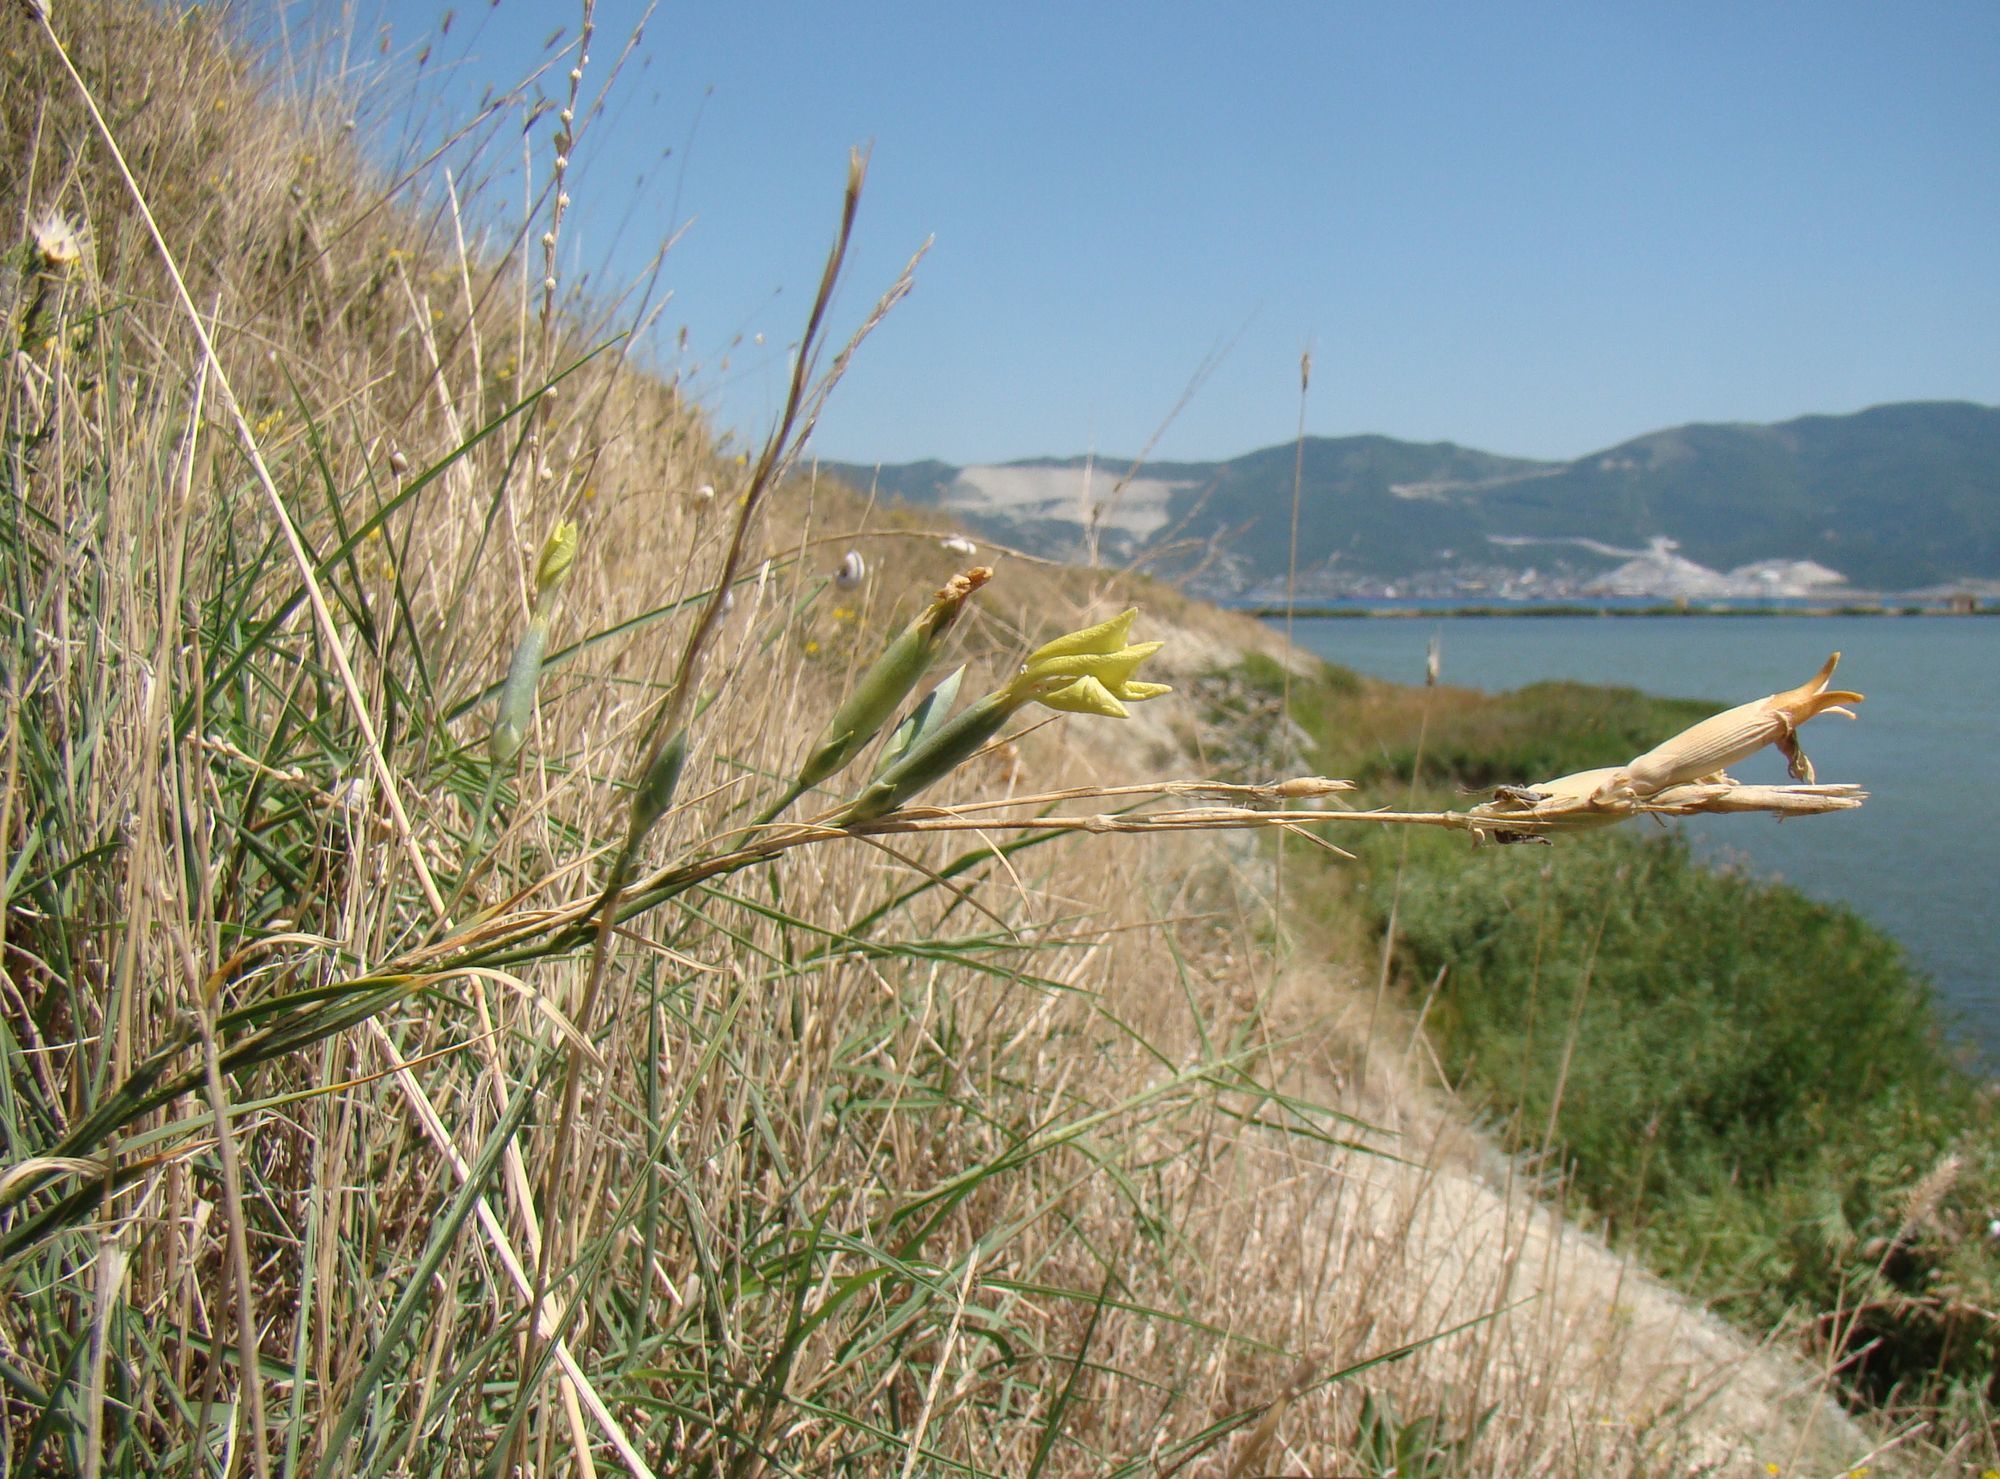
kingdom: Plantae
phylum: Tracheophyta
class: Magnoliopsida
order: Caryophyllales
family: Caryophyllaceae
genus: Dianthus
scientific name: Dianthus pallens
